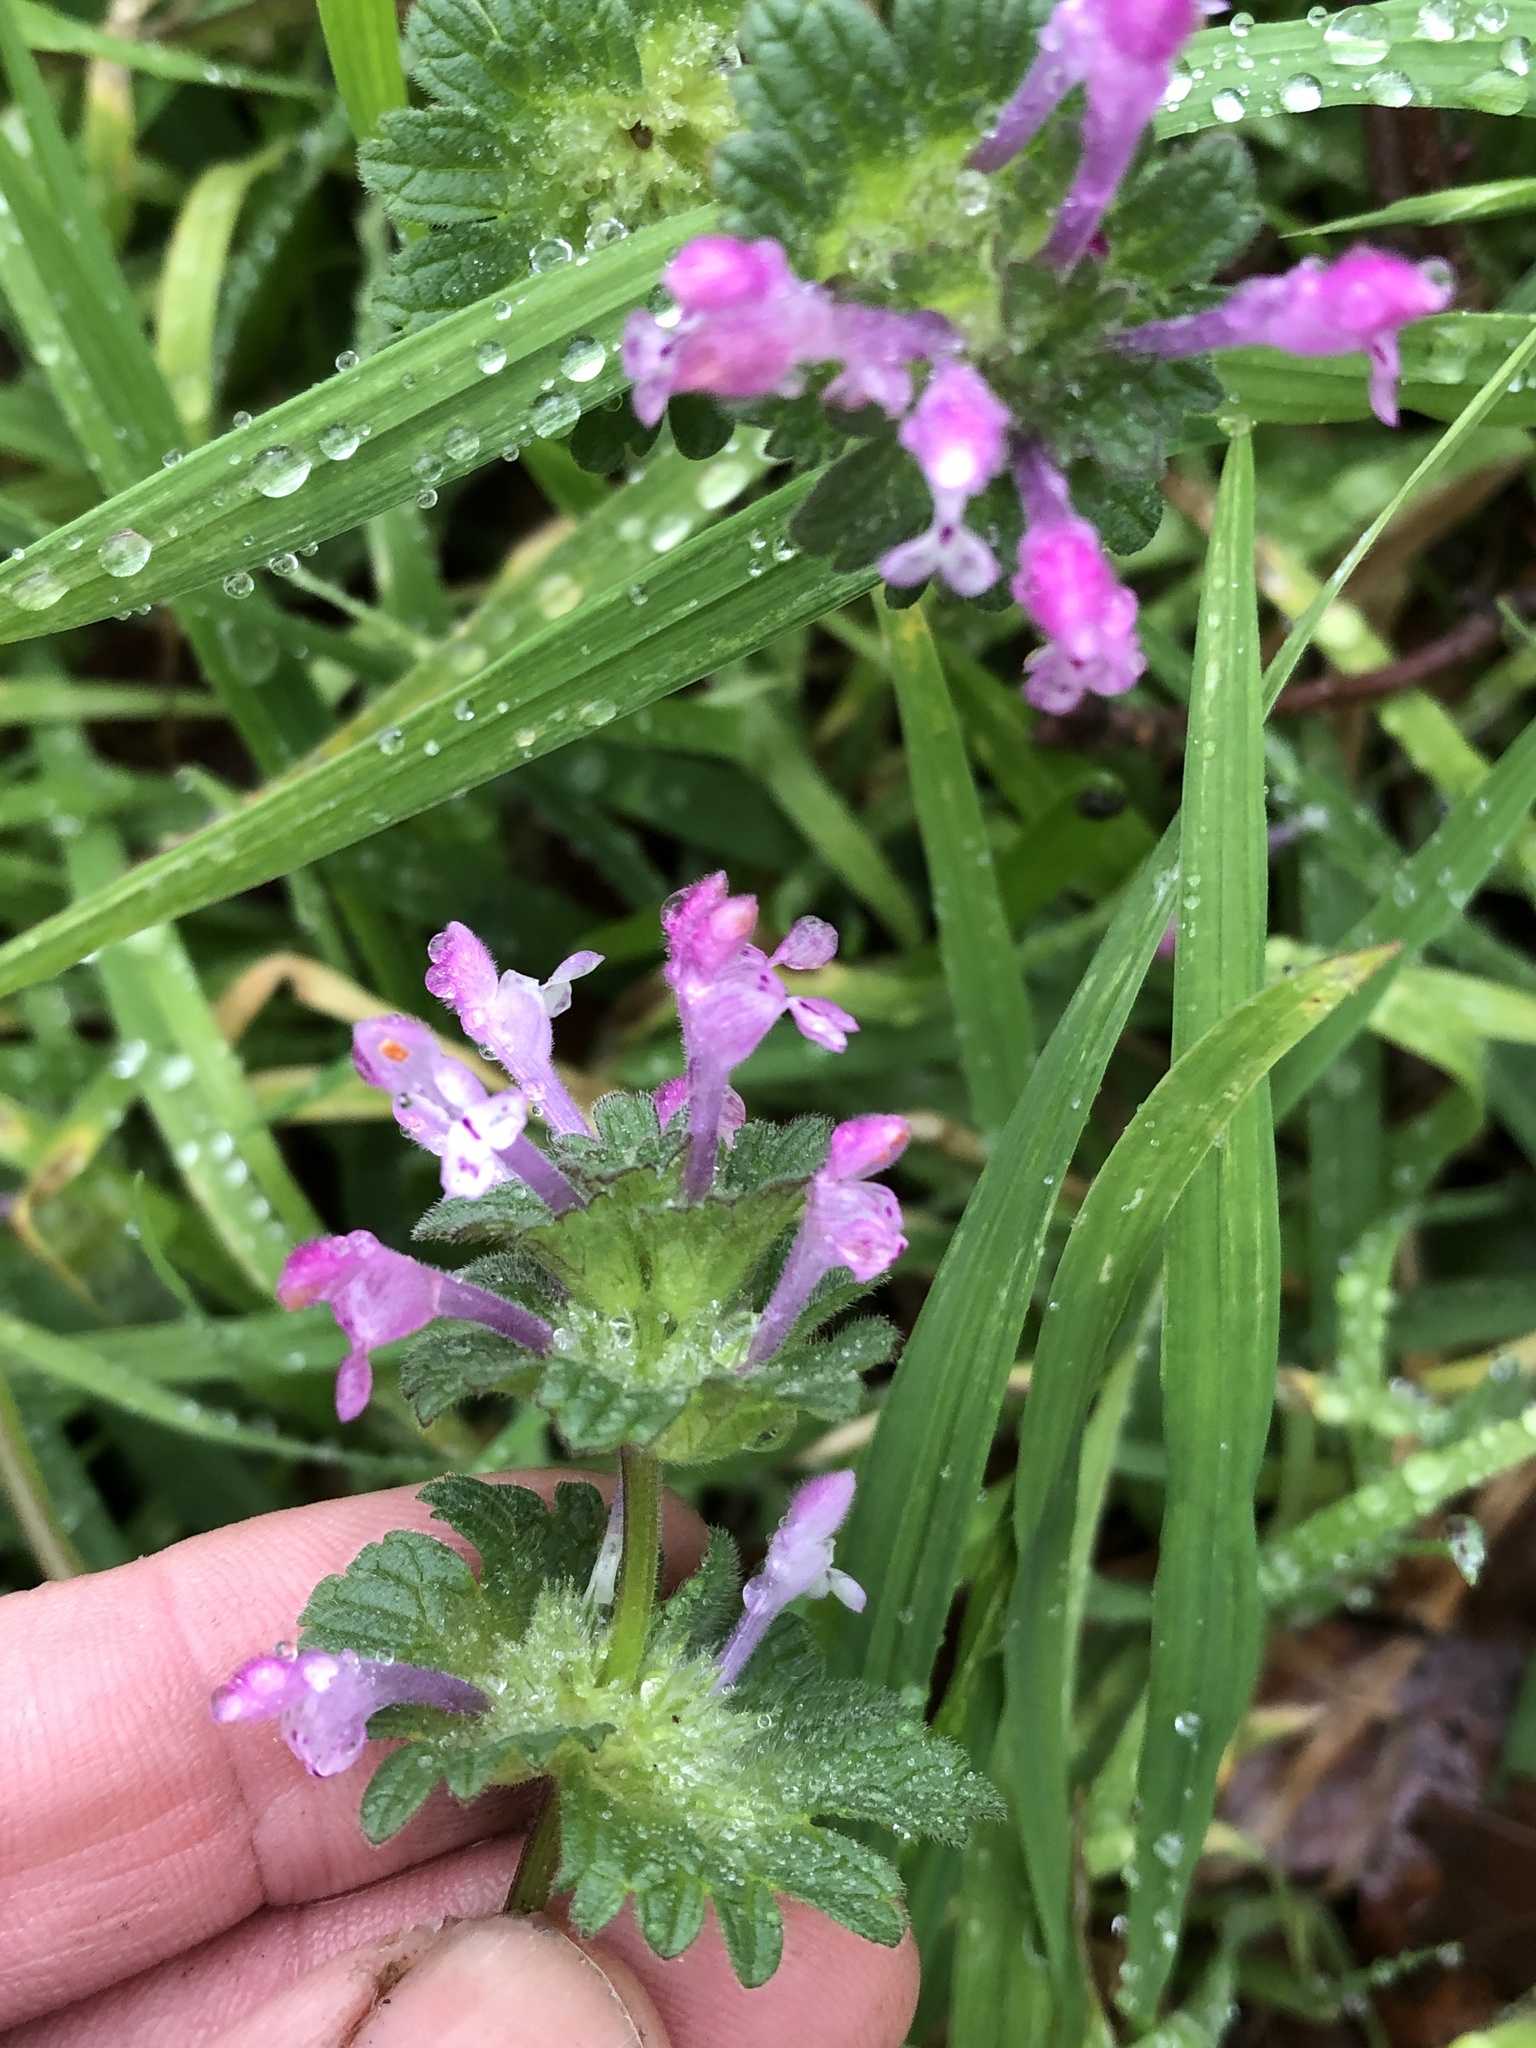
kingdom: Plantae
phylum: Tracheophyta
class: Magnoliopsida
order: Lamiales
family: Lamiaceae
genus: Lamium
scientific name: Lamium amplexicaule
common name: Henbit dead-nettle
